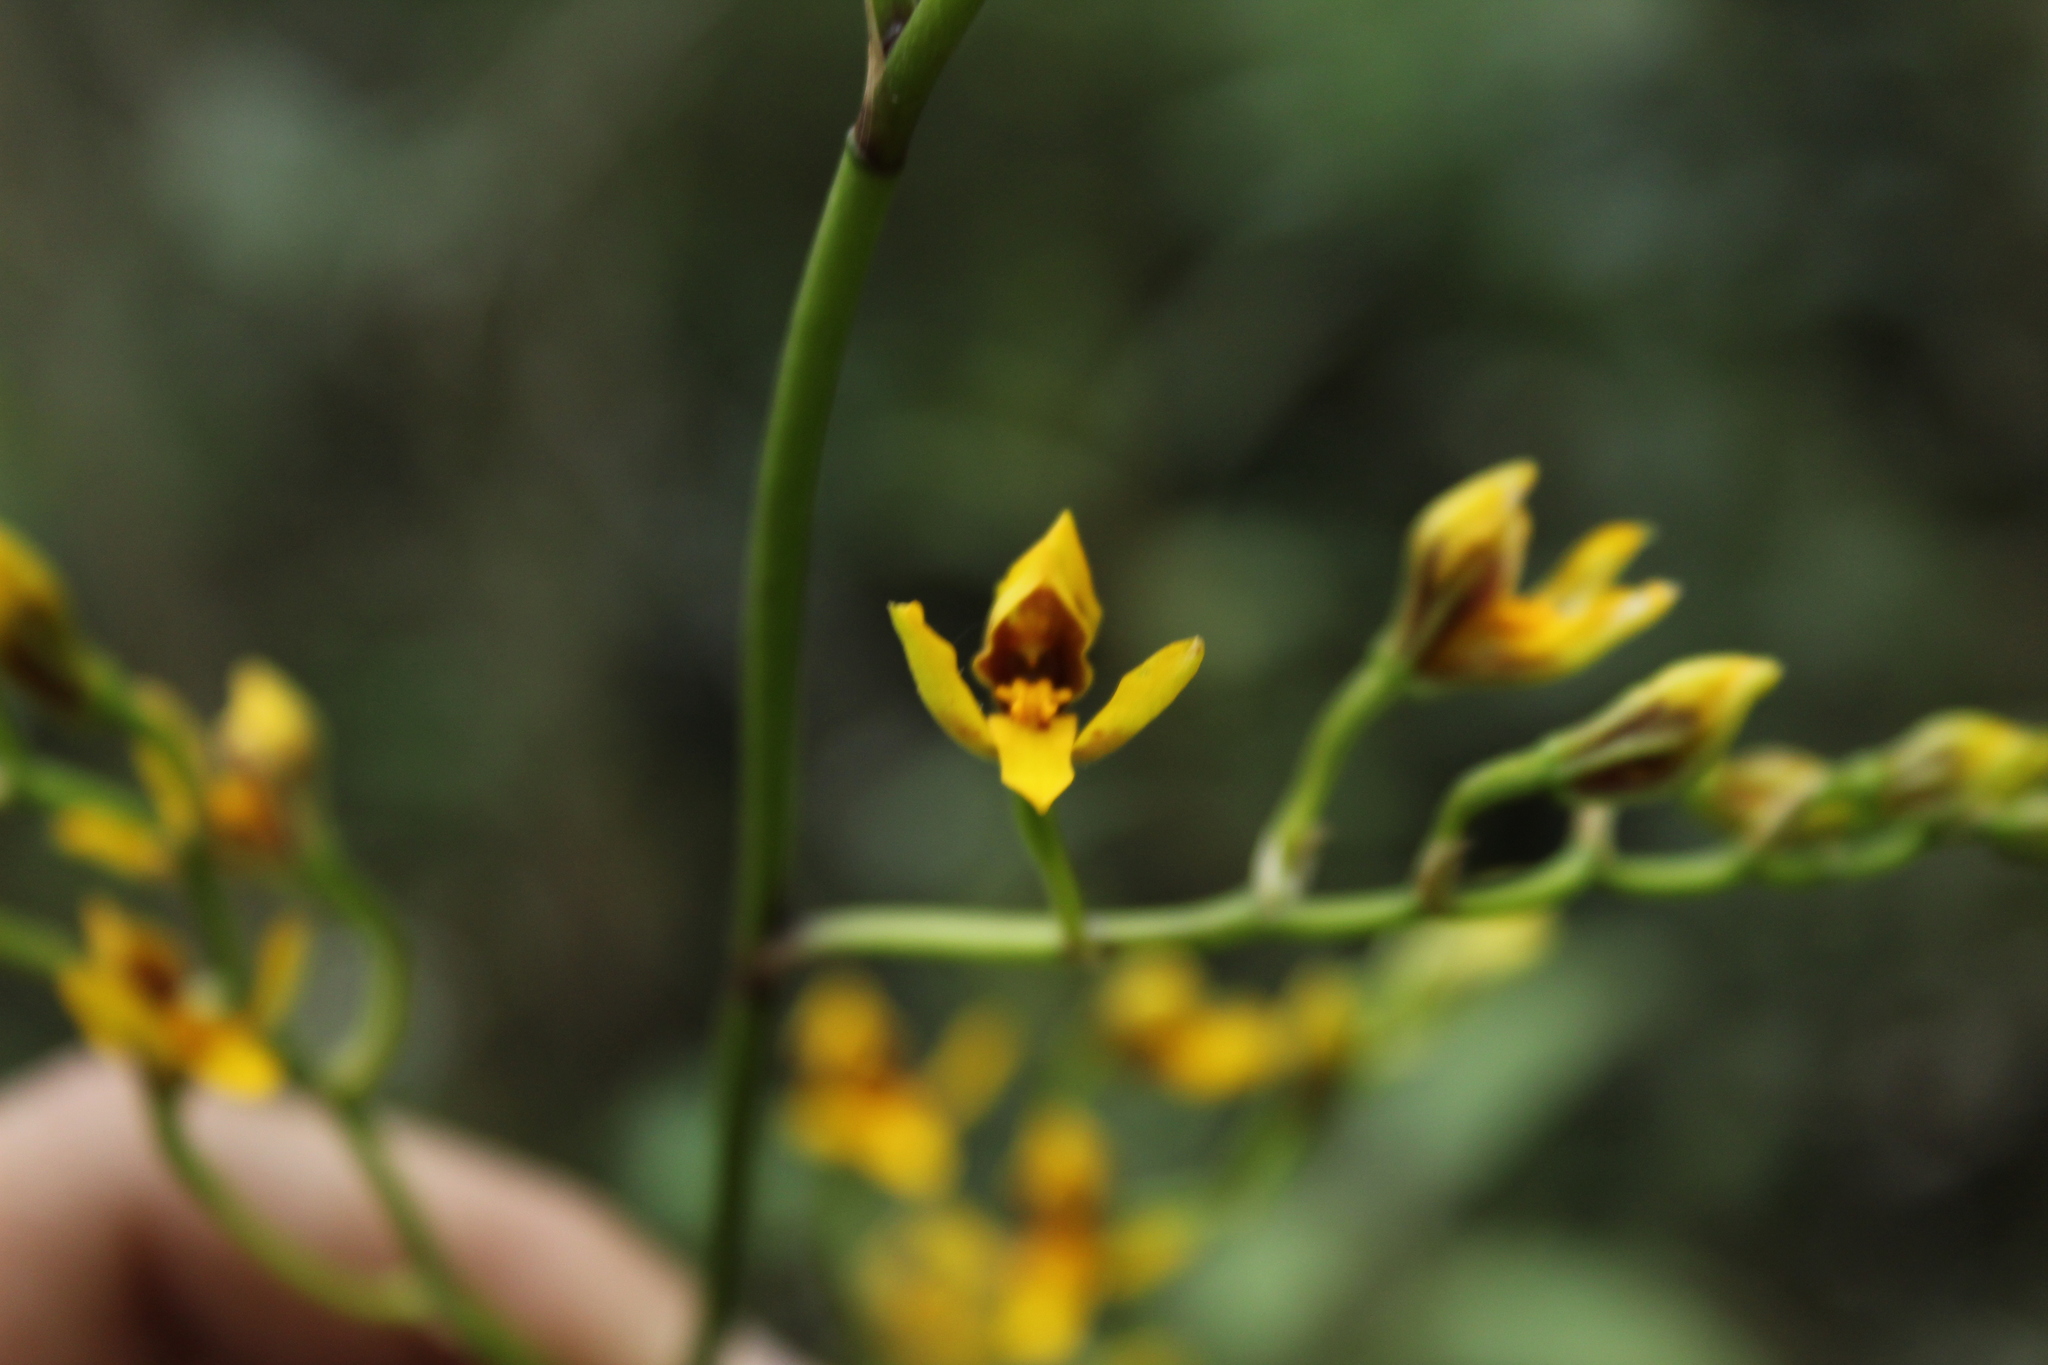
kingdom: Plantae
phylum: Tracheophyta
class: Liliopsida
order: Asparagales
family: Orchidaceae
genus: Cyrtochilum
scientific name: Cyrtochilum densiflorum
